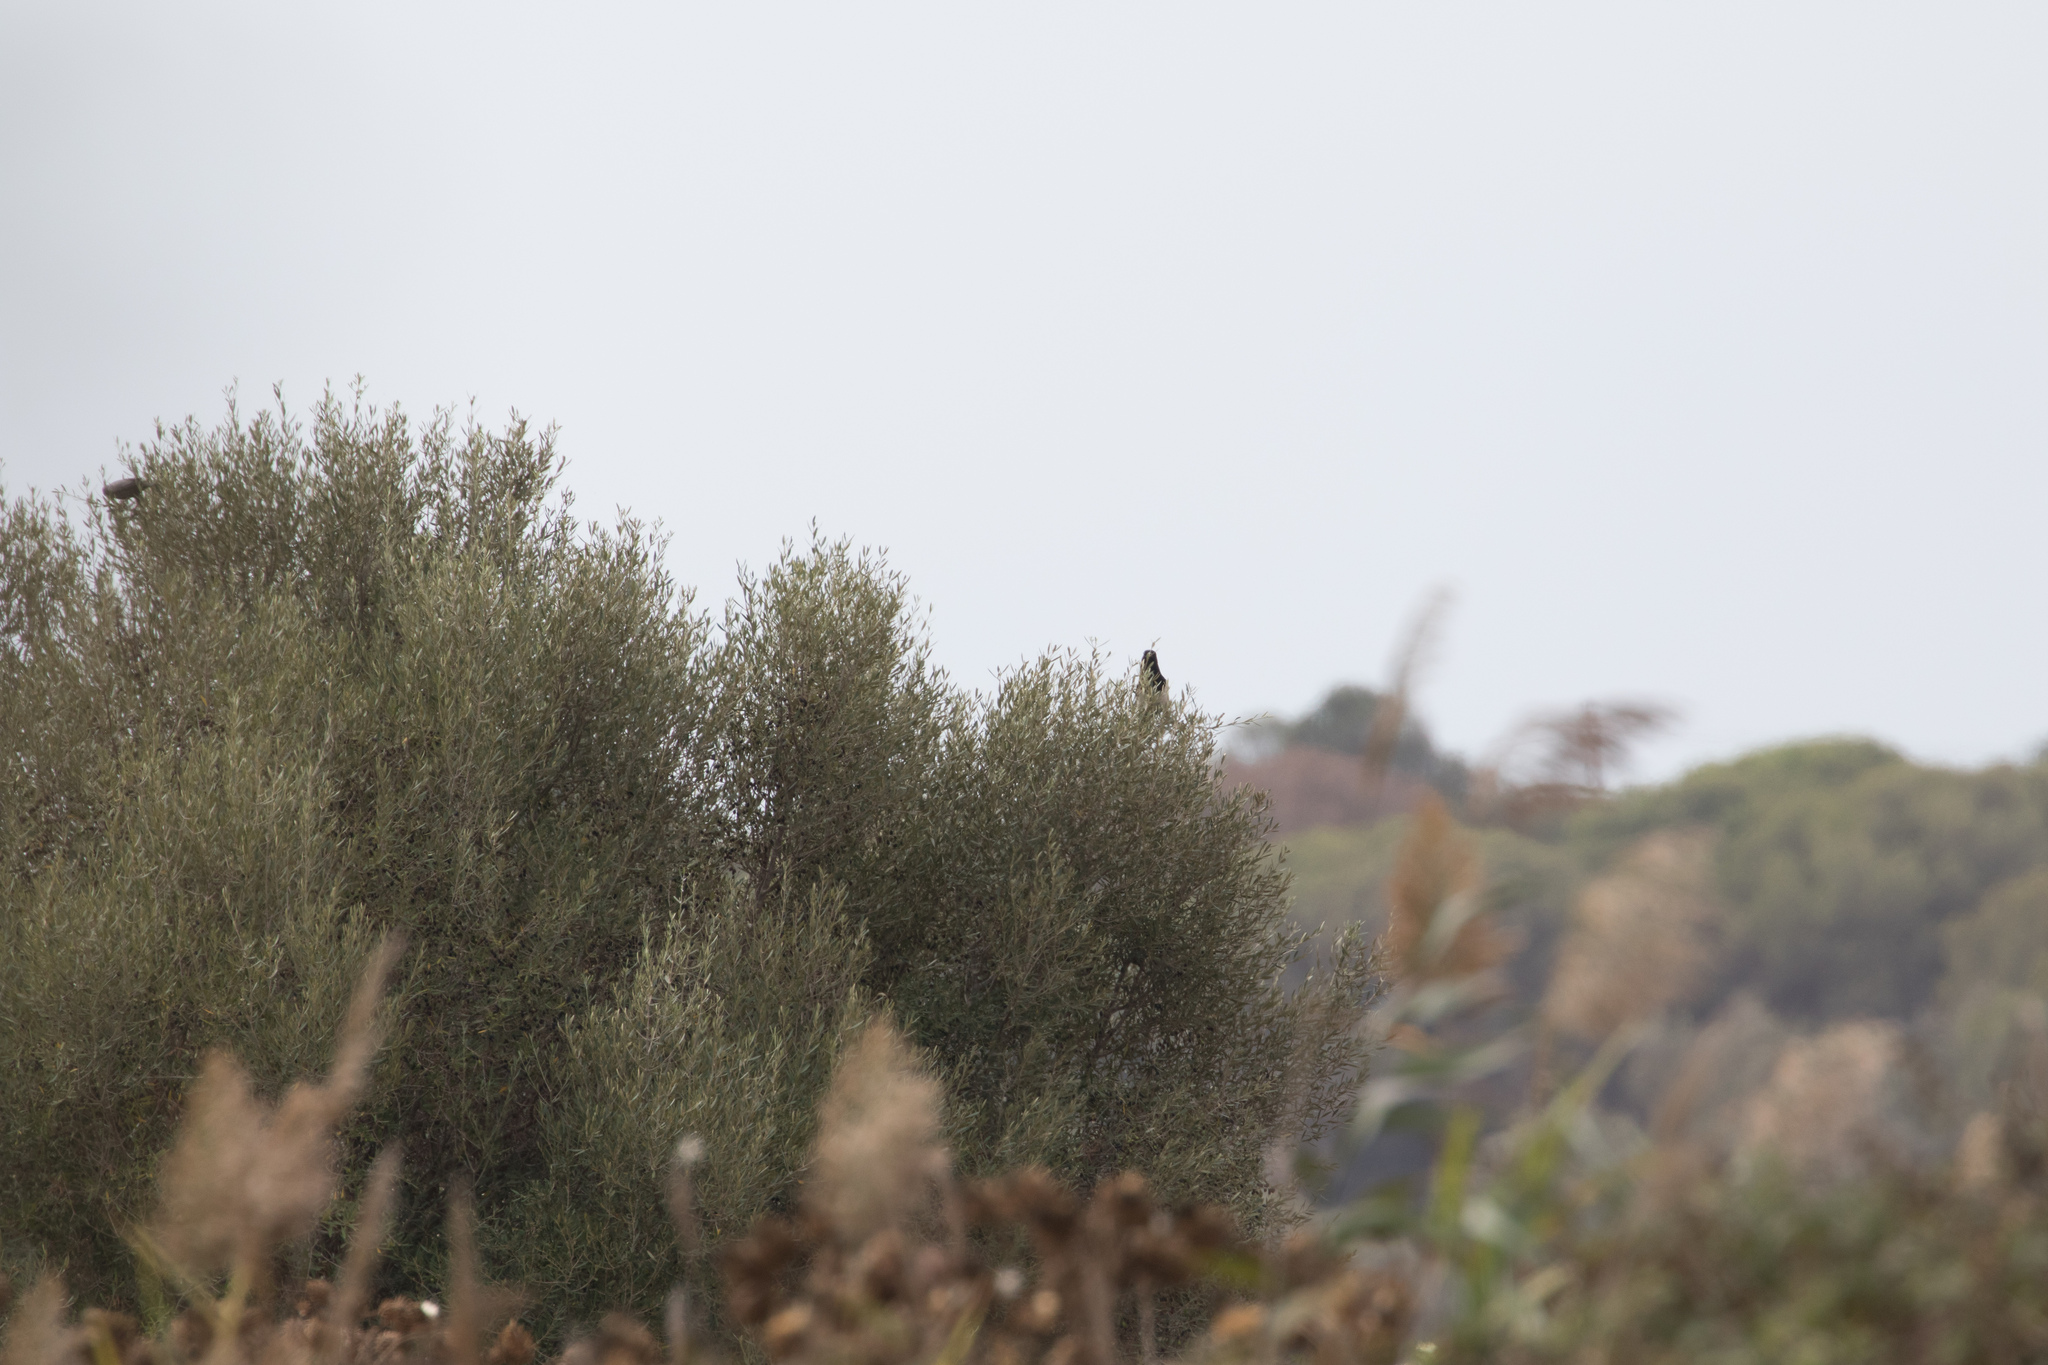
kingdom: Animalia
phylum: Chordata
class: Aves
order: Passeriformes
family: Corvidae
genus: Pica
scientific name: Pica pica
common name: Eurasian magpie
